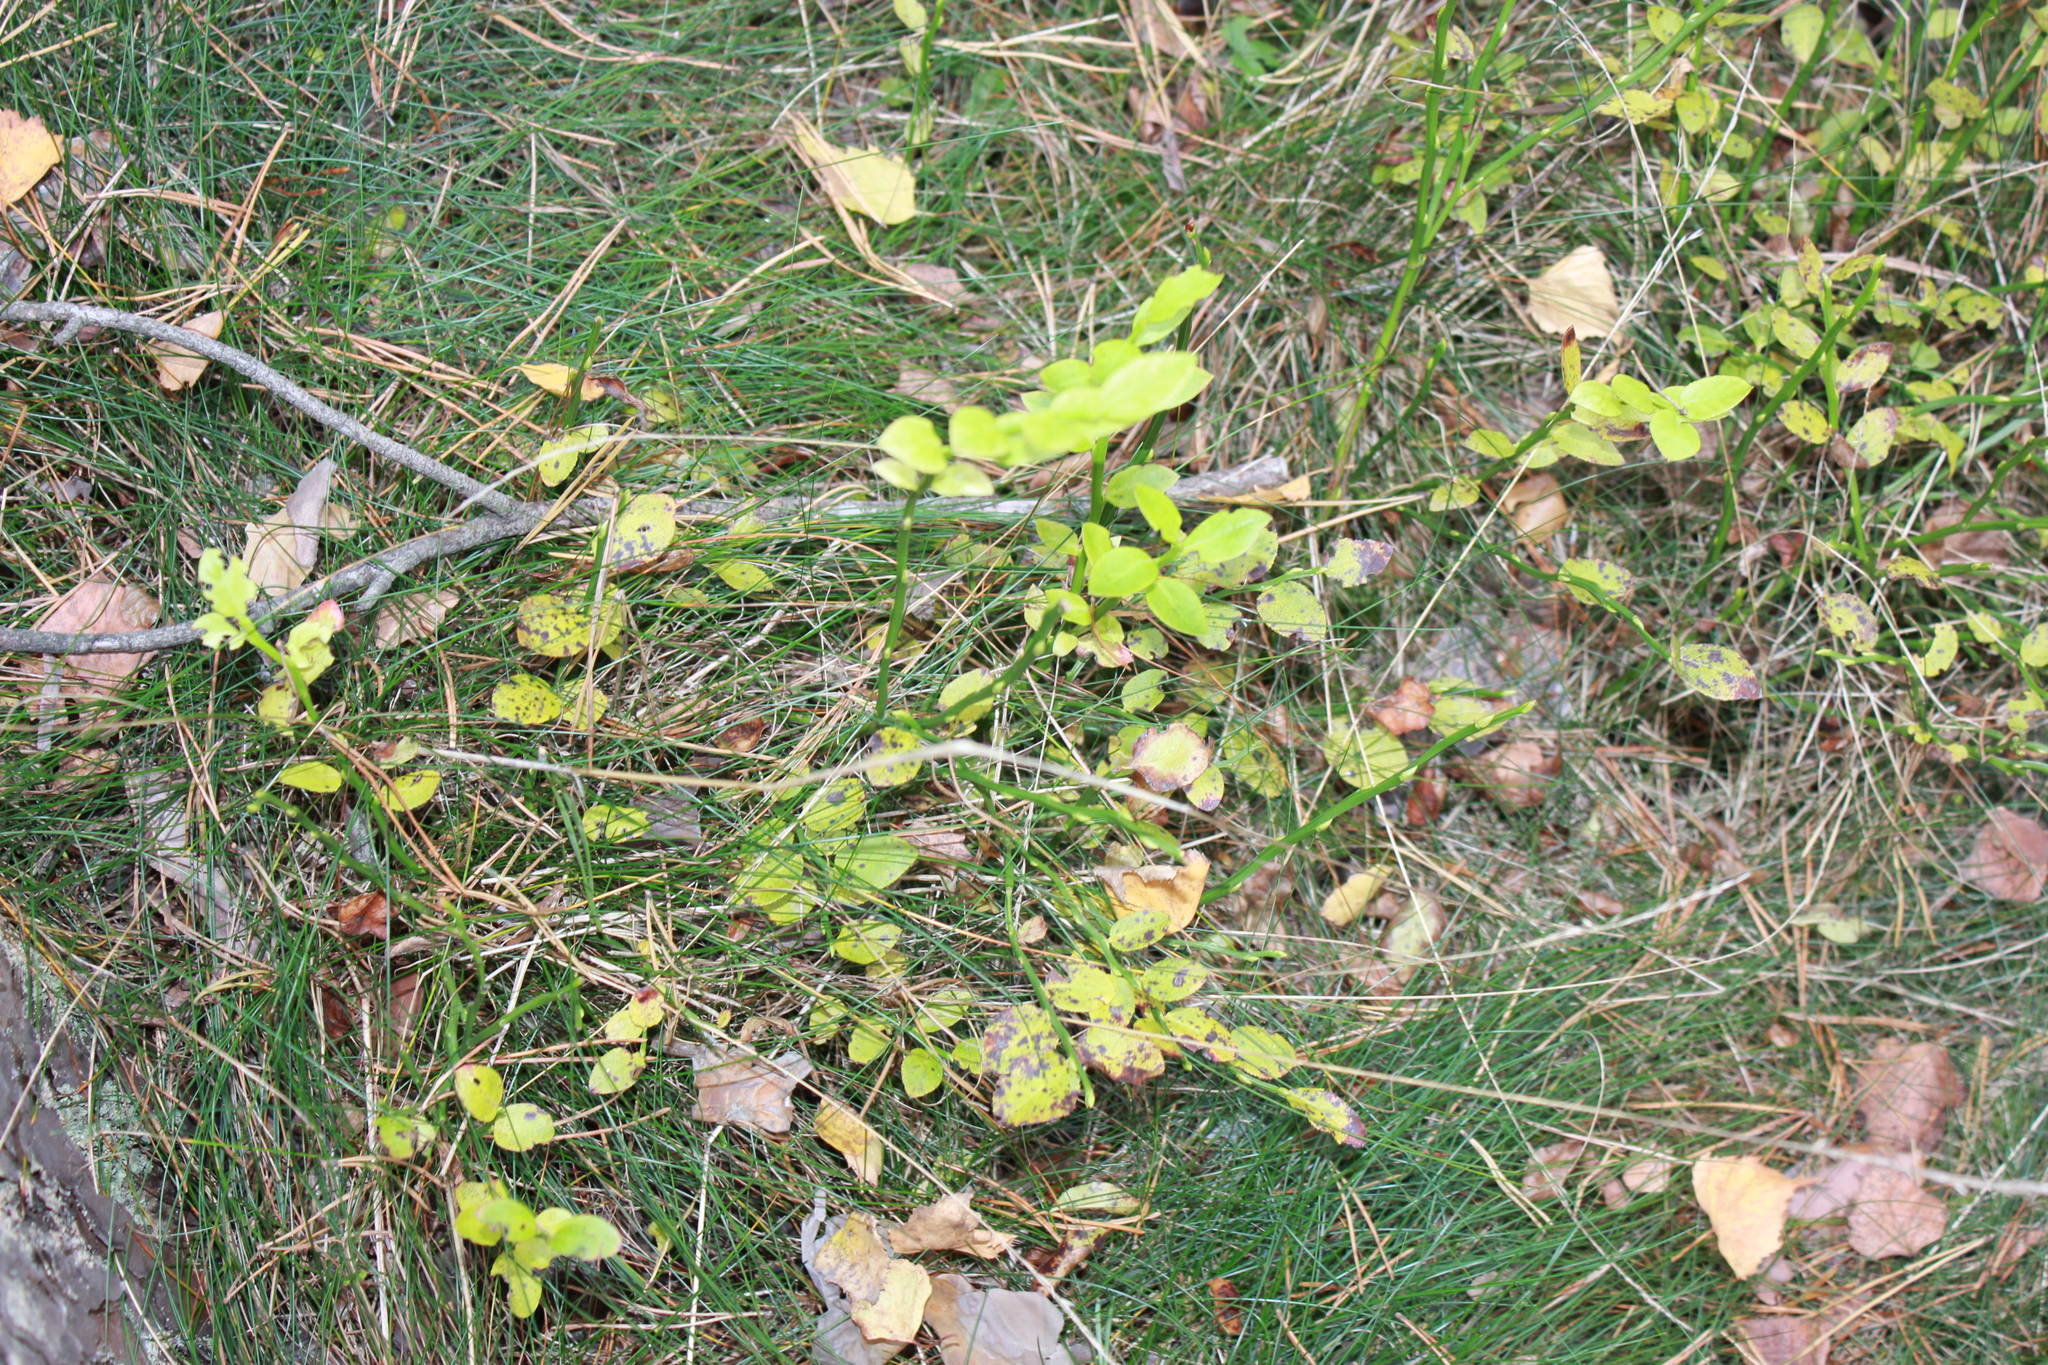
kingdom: Plantae
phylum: Tracheophyta
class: Magnoliopsida
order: Ericales
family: Ericaceae
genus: Vaccinium
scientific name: Vaccinium myrtillus
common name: Bilberry
